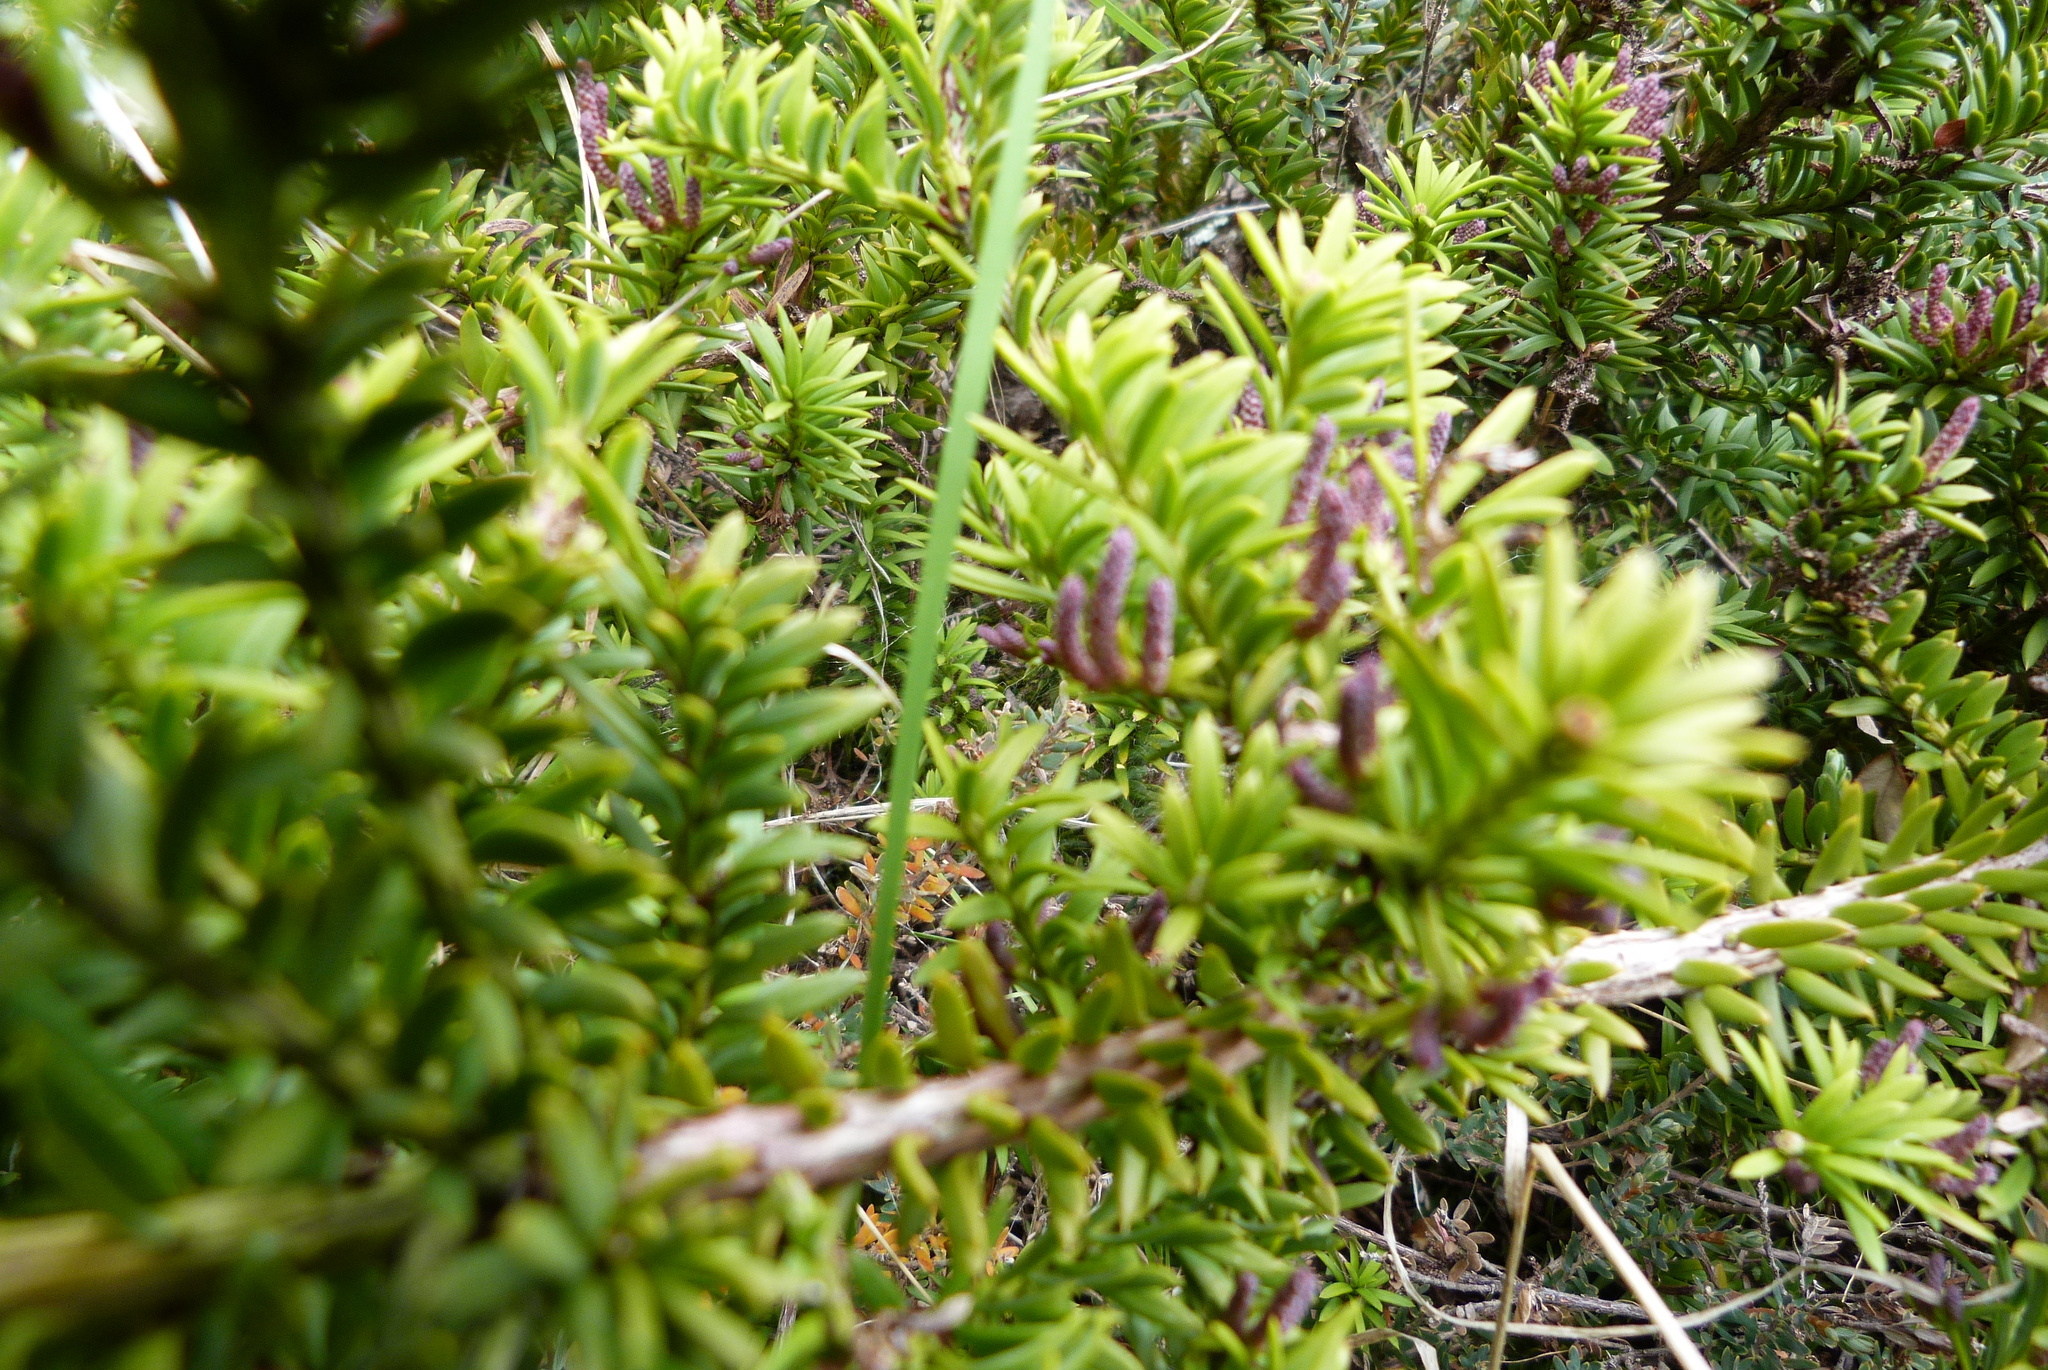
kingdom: Plantae
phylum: Tracheophyta
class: Pinopsida
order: Pinales
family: Podocarpaceae
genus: Podocarpus
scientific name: Podocarpus nivalis
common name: Alpine totara
